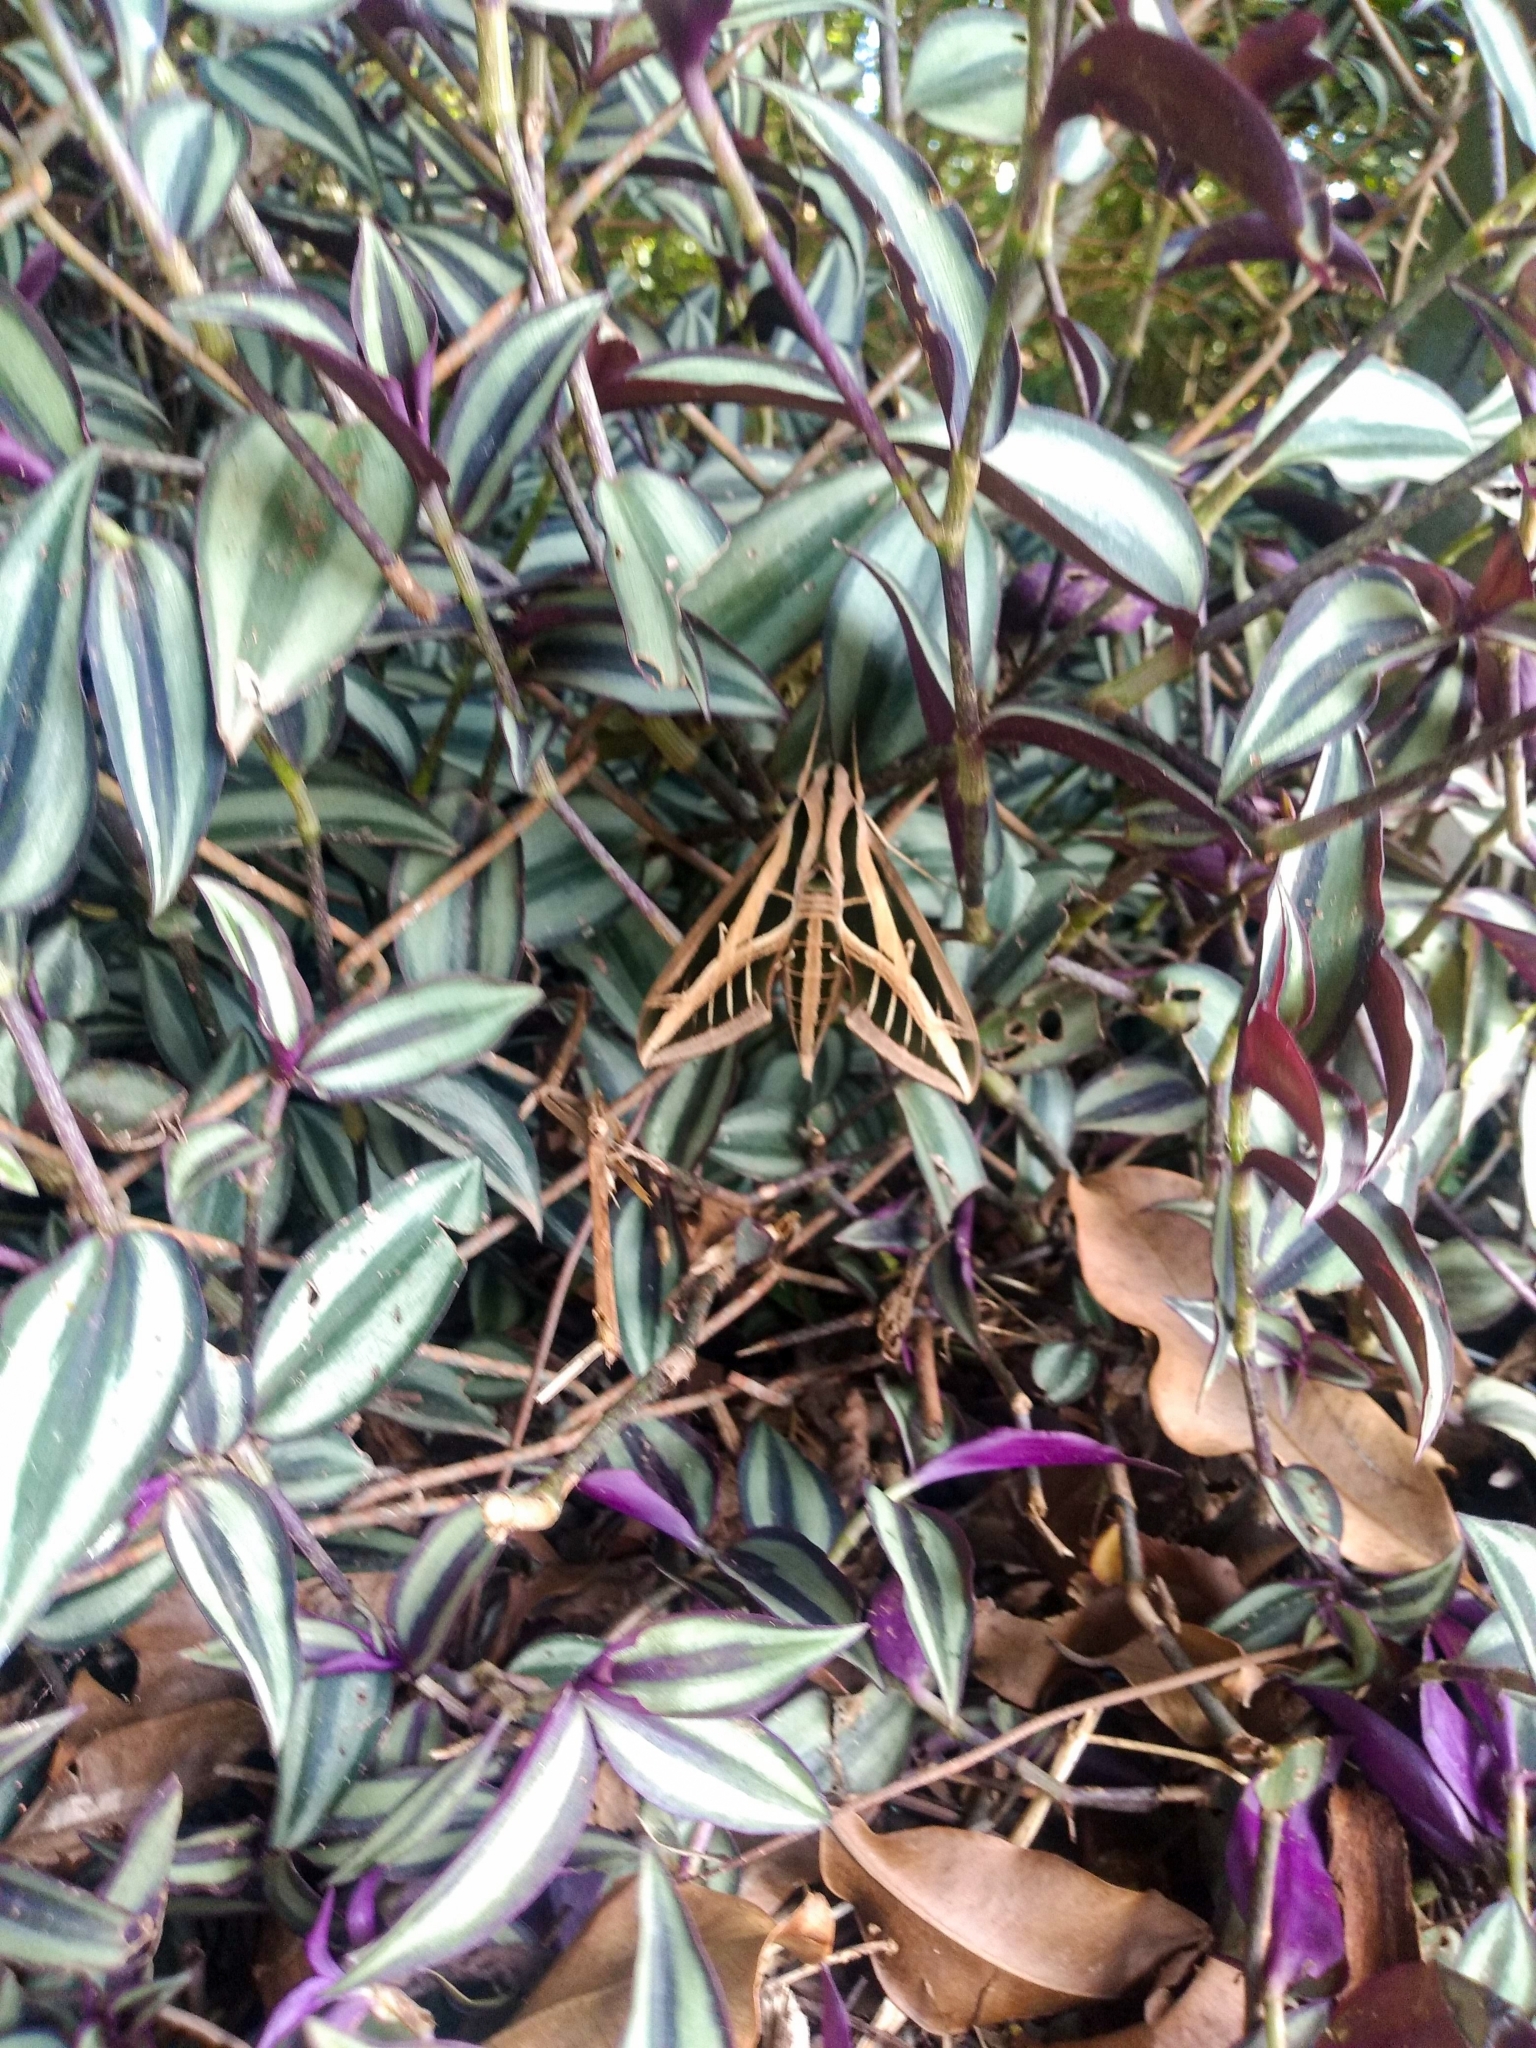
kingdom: Animalia
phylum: Arthropoda
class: Insecta
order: Lepidoptera
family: Sphingidae
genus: Eumorpha
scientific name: Eumorpha fasciatus
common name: Banded sphinx
